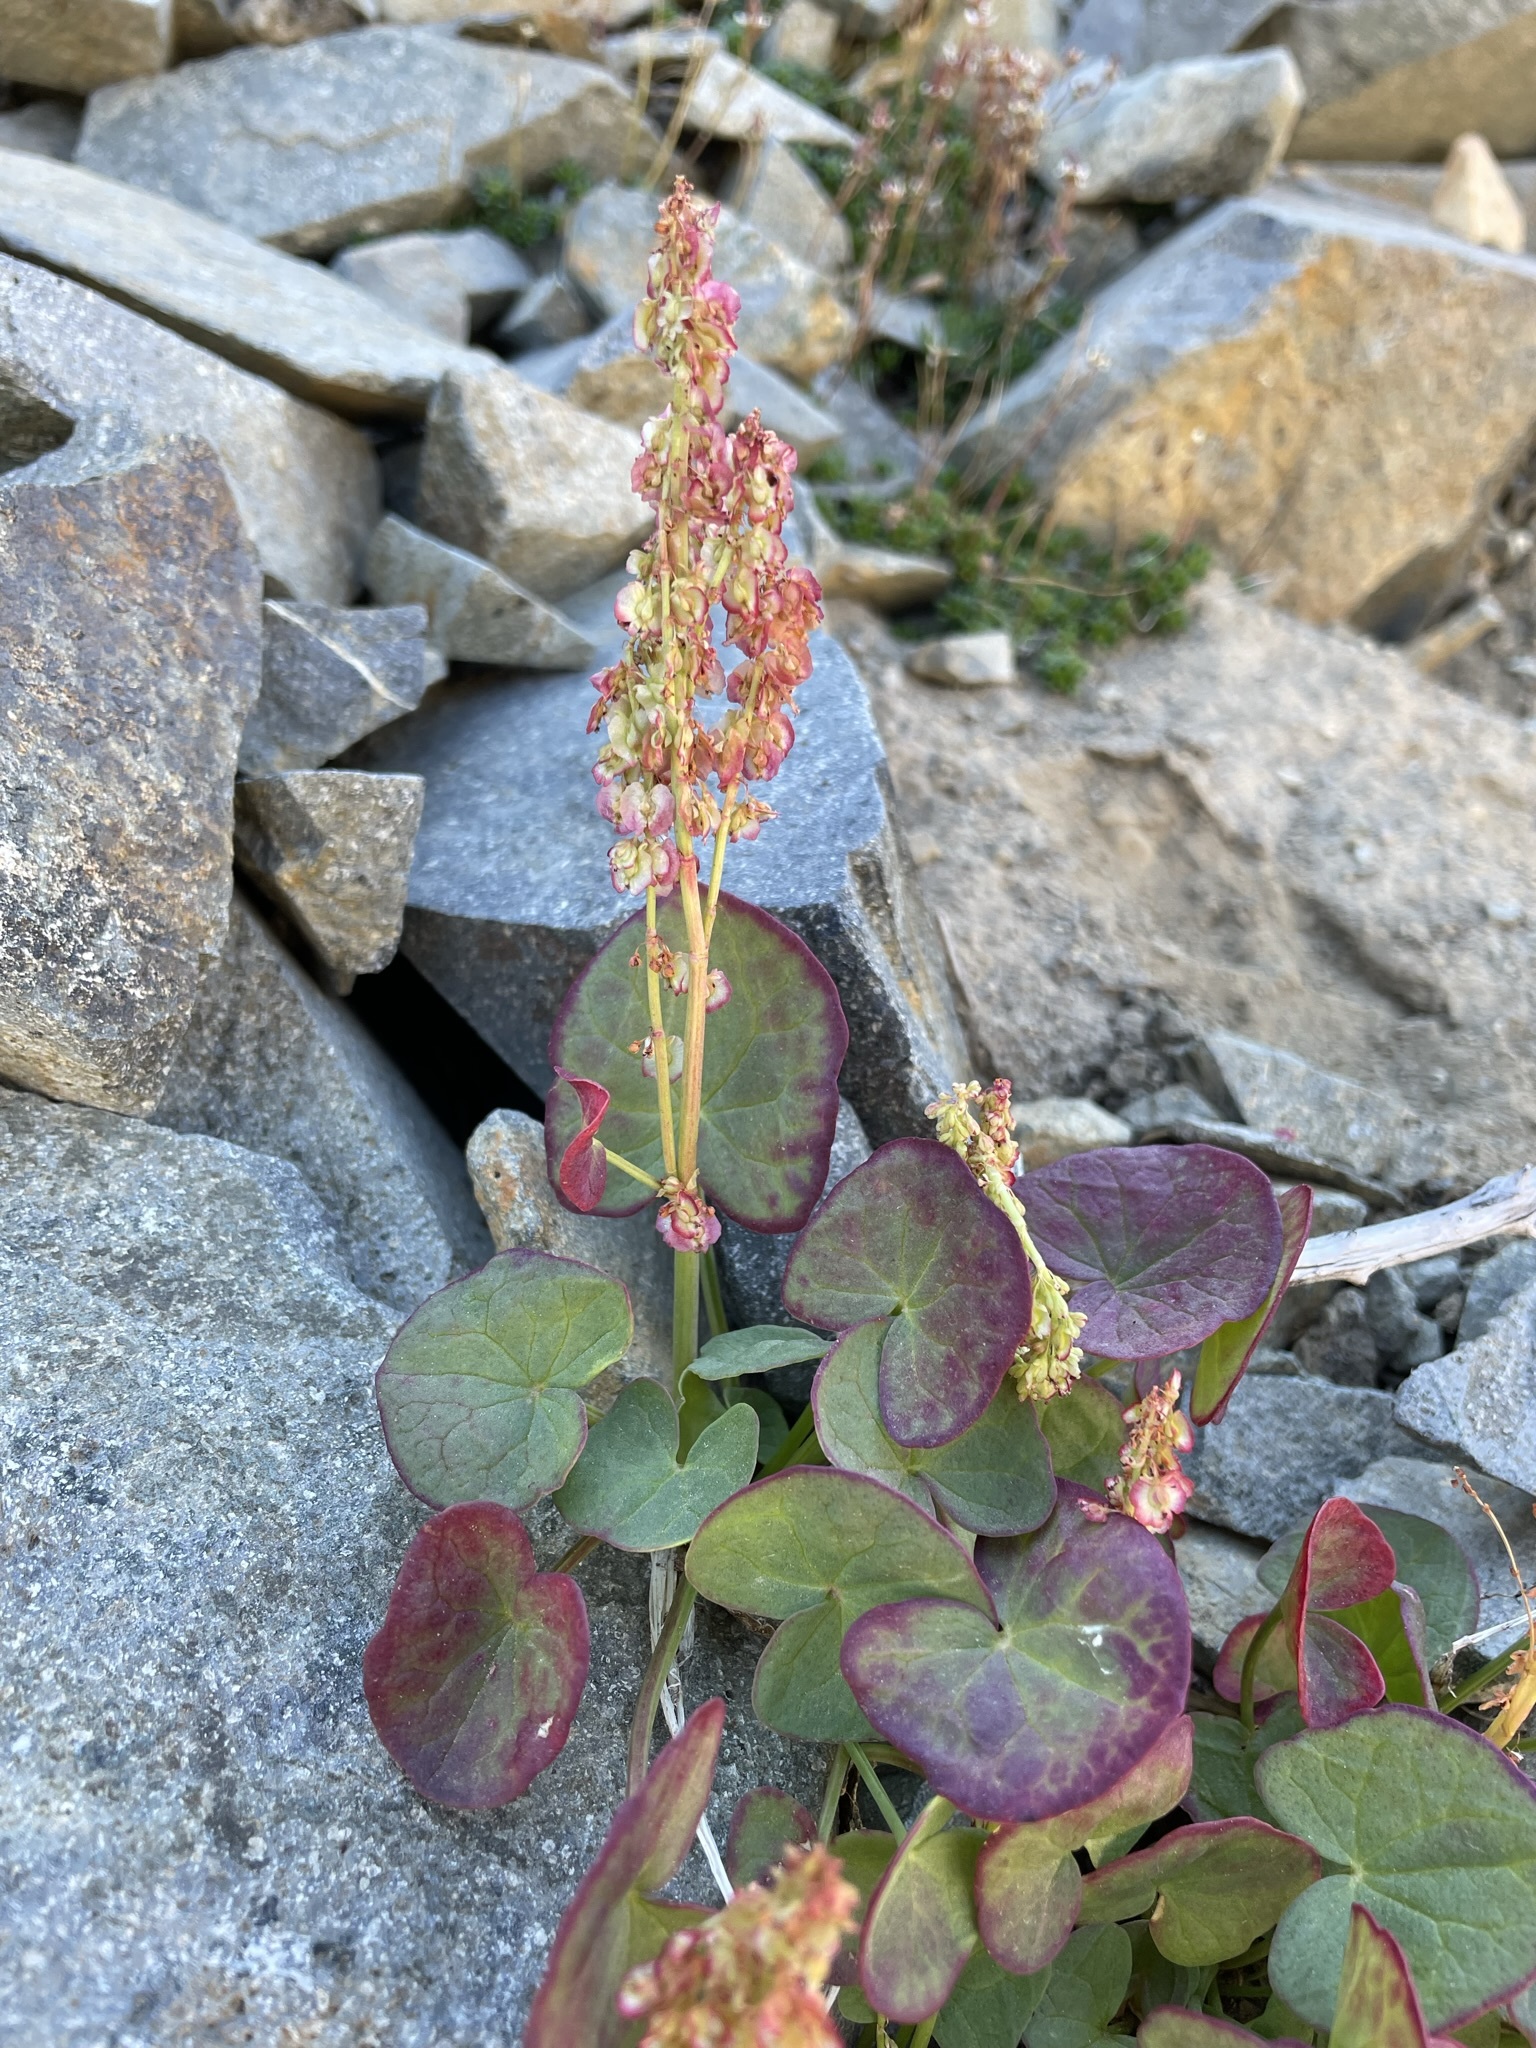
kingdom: Plantae
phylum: Tracheophyta
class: Magnoliopsida
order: Caryophyllales
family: Polygonaceae
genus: Oxyria
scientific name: Oxyria digyna
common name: Alpine mountain-sorrel
